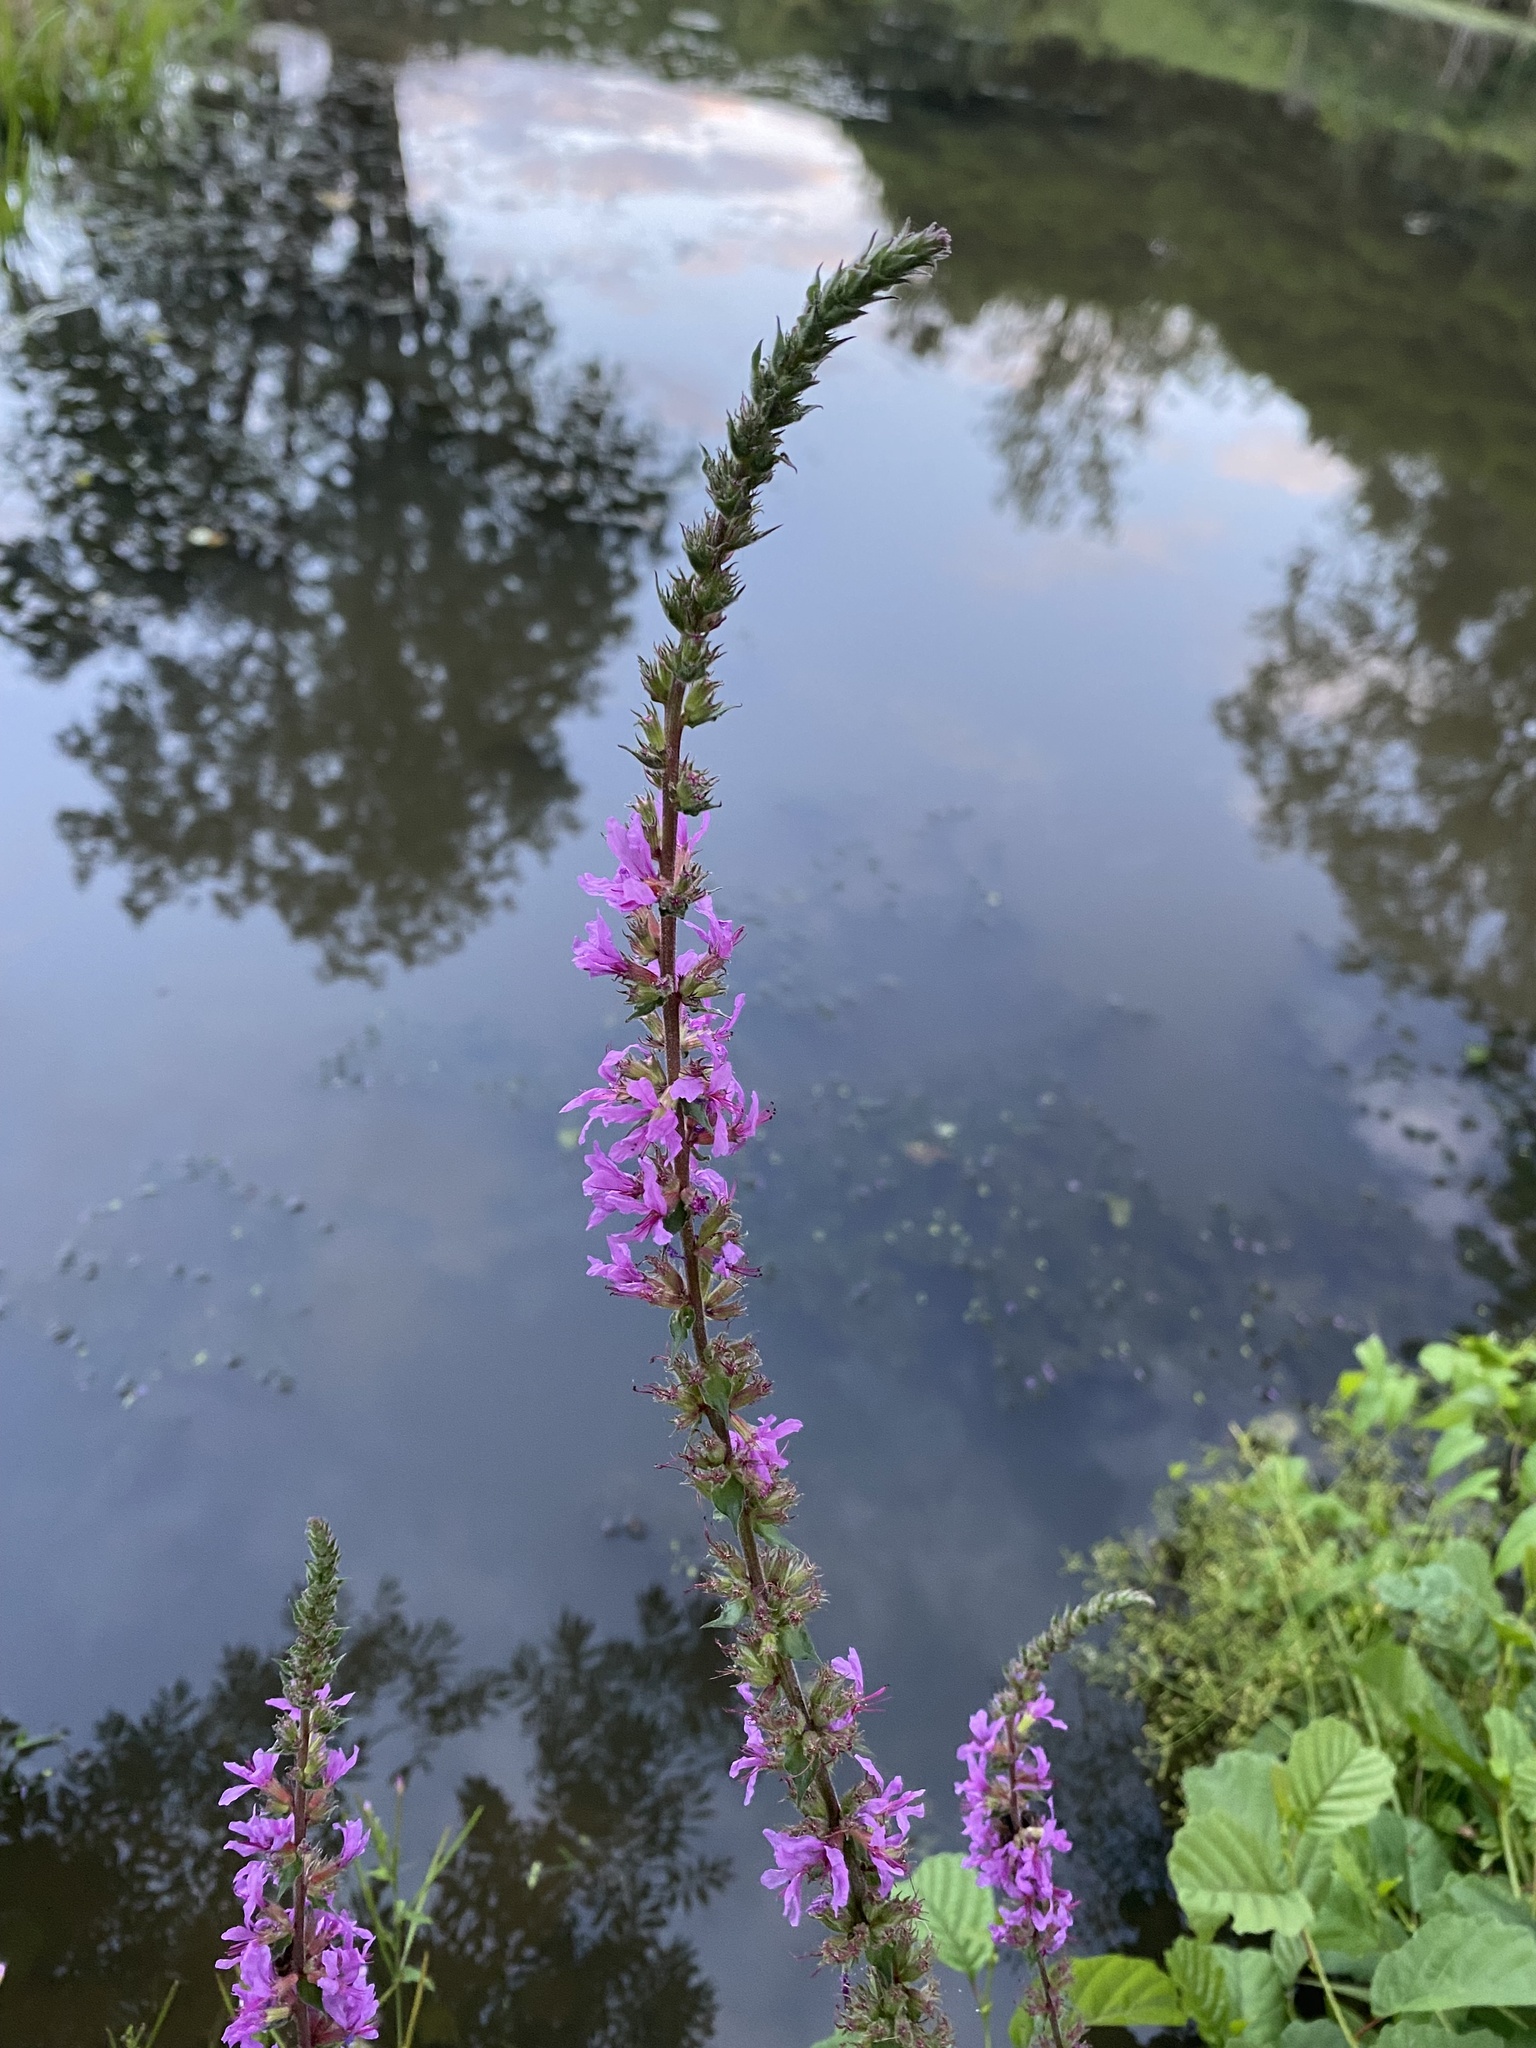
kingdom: Plantae
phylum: Tracheophyta
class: Magnoliopsida
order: Myrtales
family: Lythraceae
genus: Lythrum
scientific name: Lythrum salicaria
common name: Purple loosestrife
